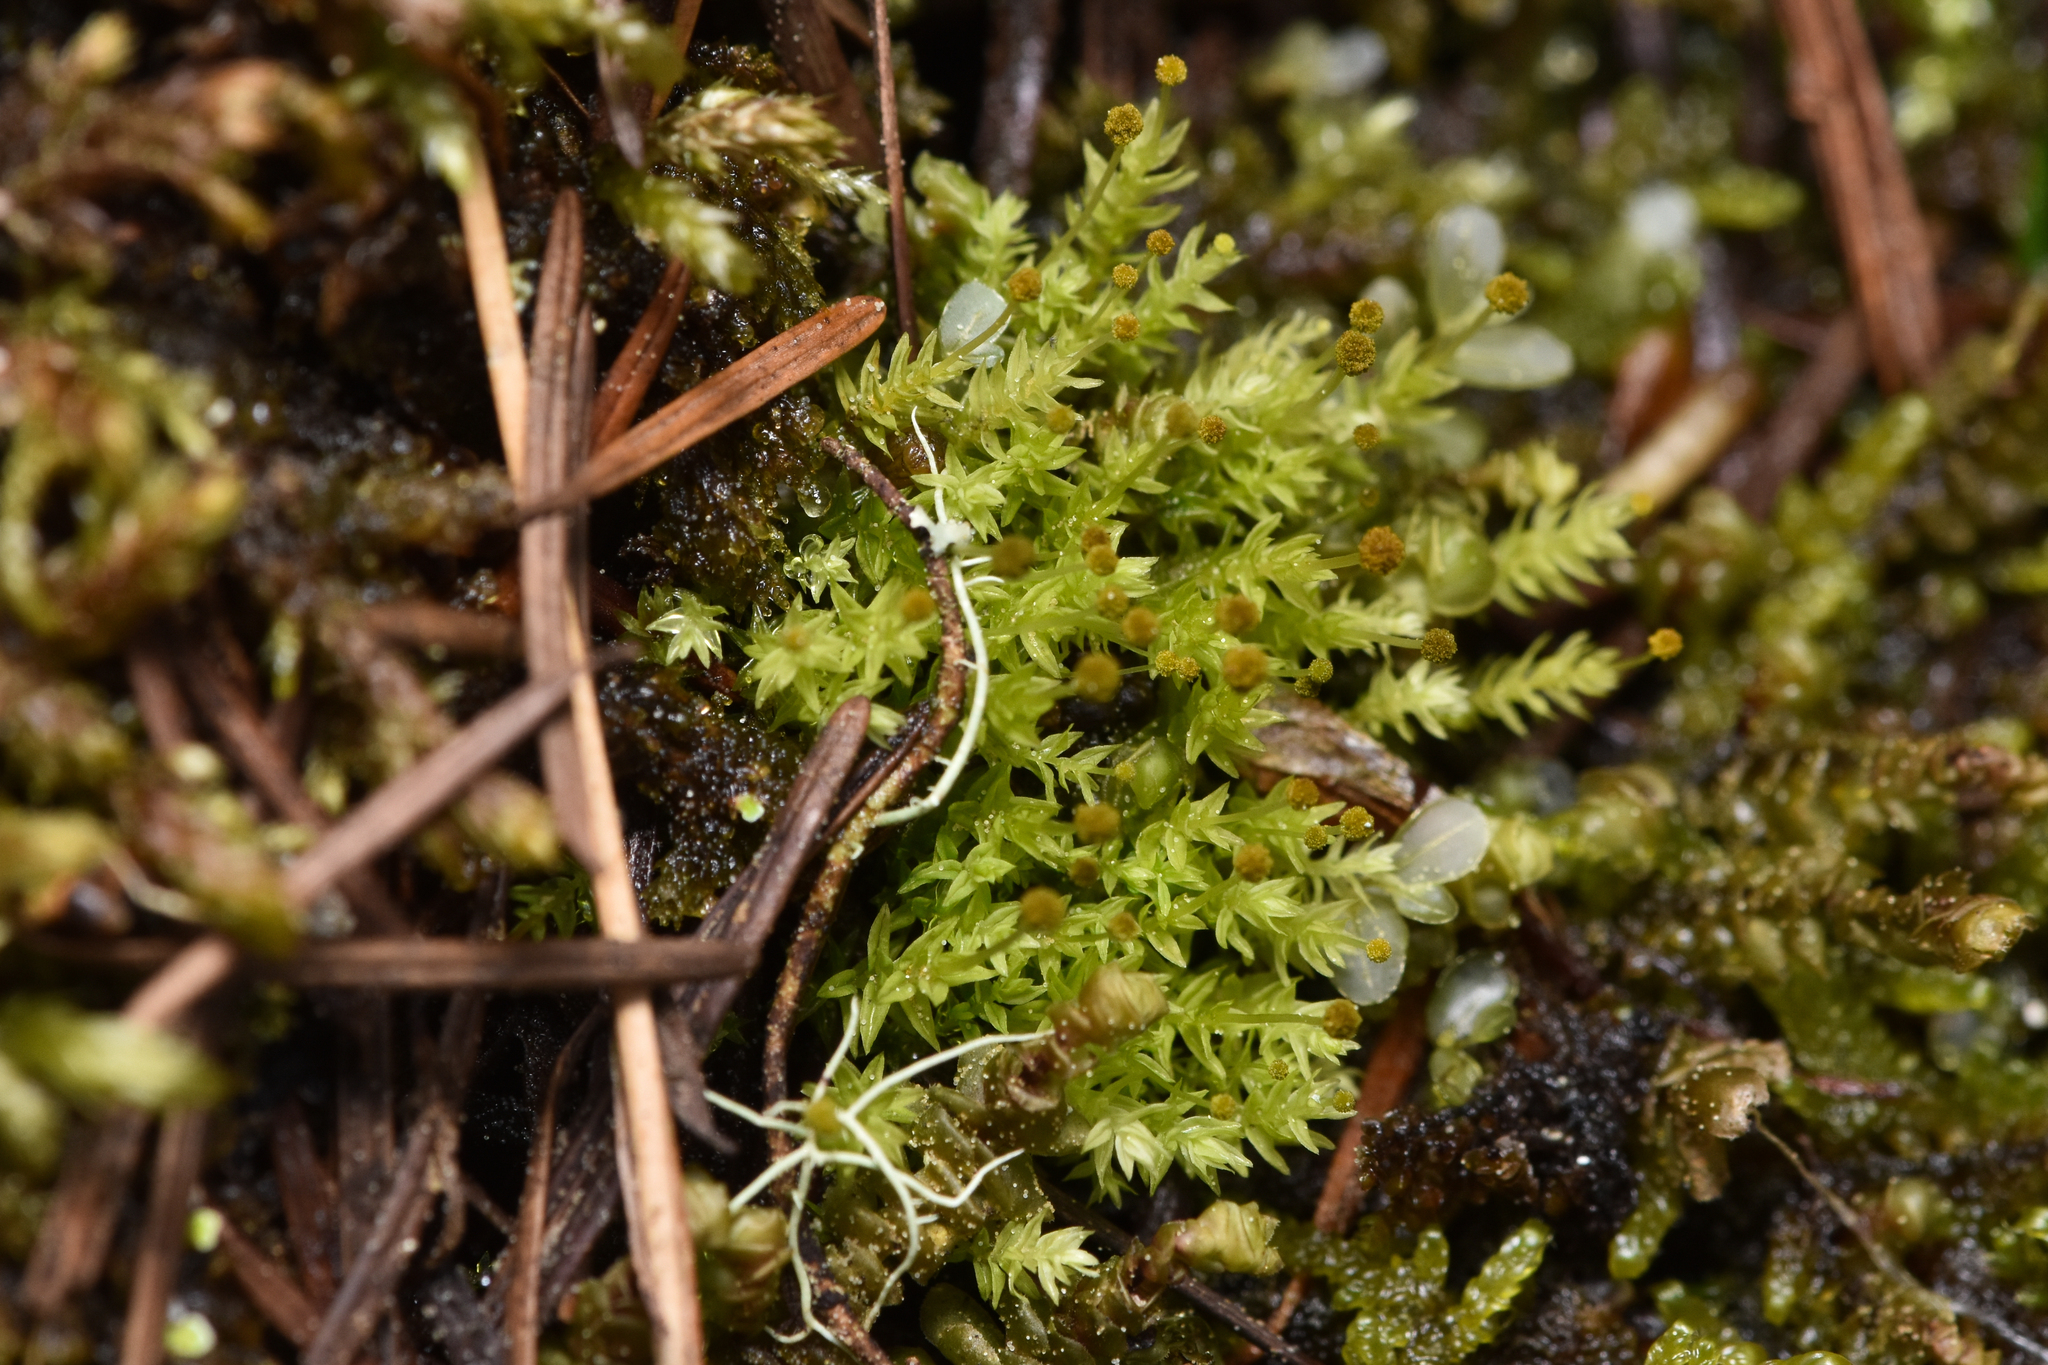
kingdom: Plantae
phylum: Bryophyta
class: Bryopsida
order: Aulacomniales
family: Aulacomniaceae
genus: Aulacomnium
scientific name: Aulacomnium androgynum
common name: Little groove moss
